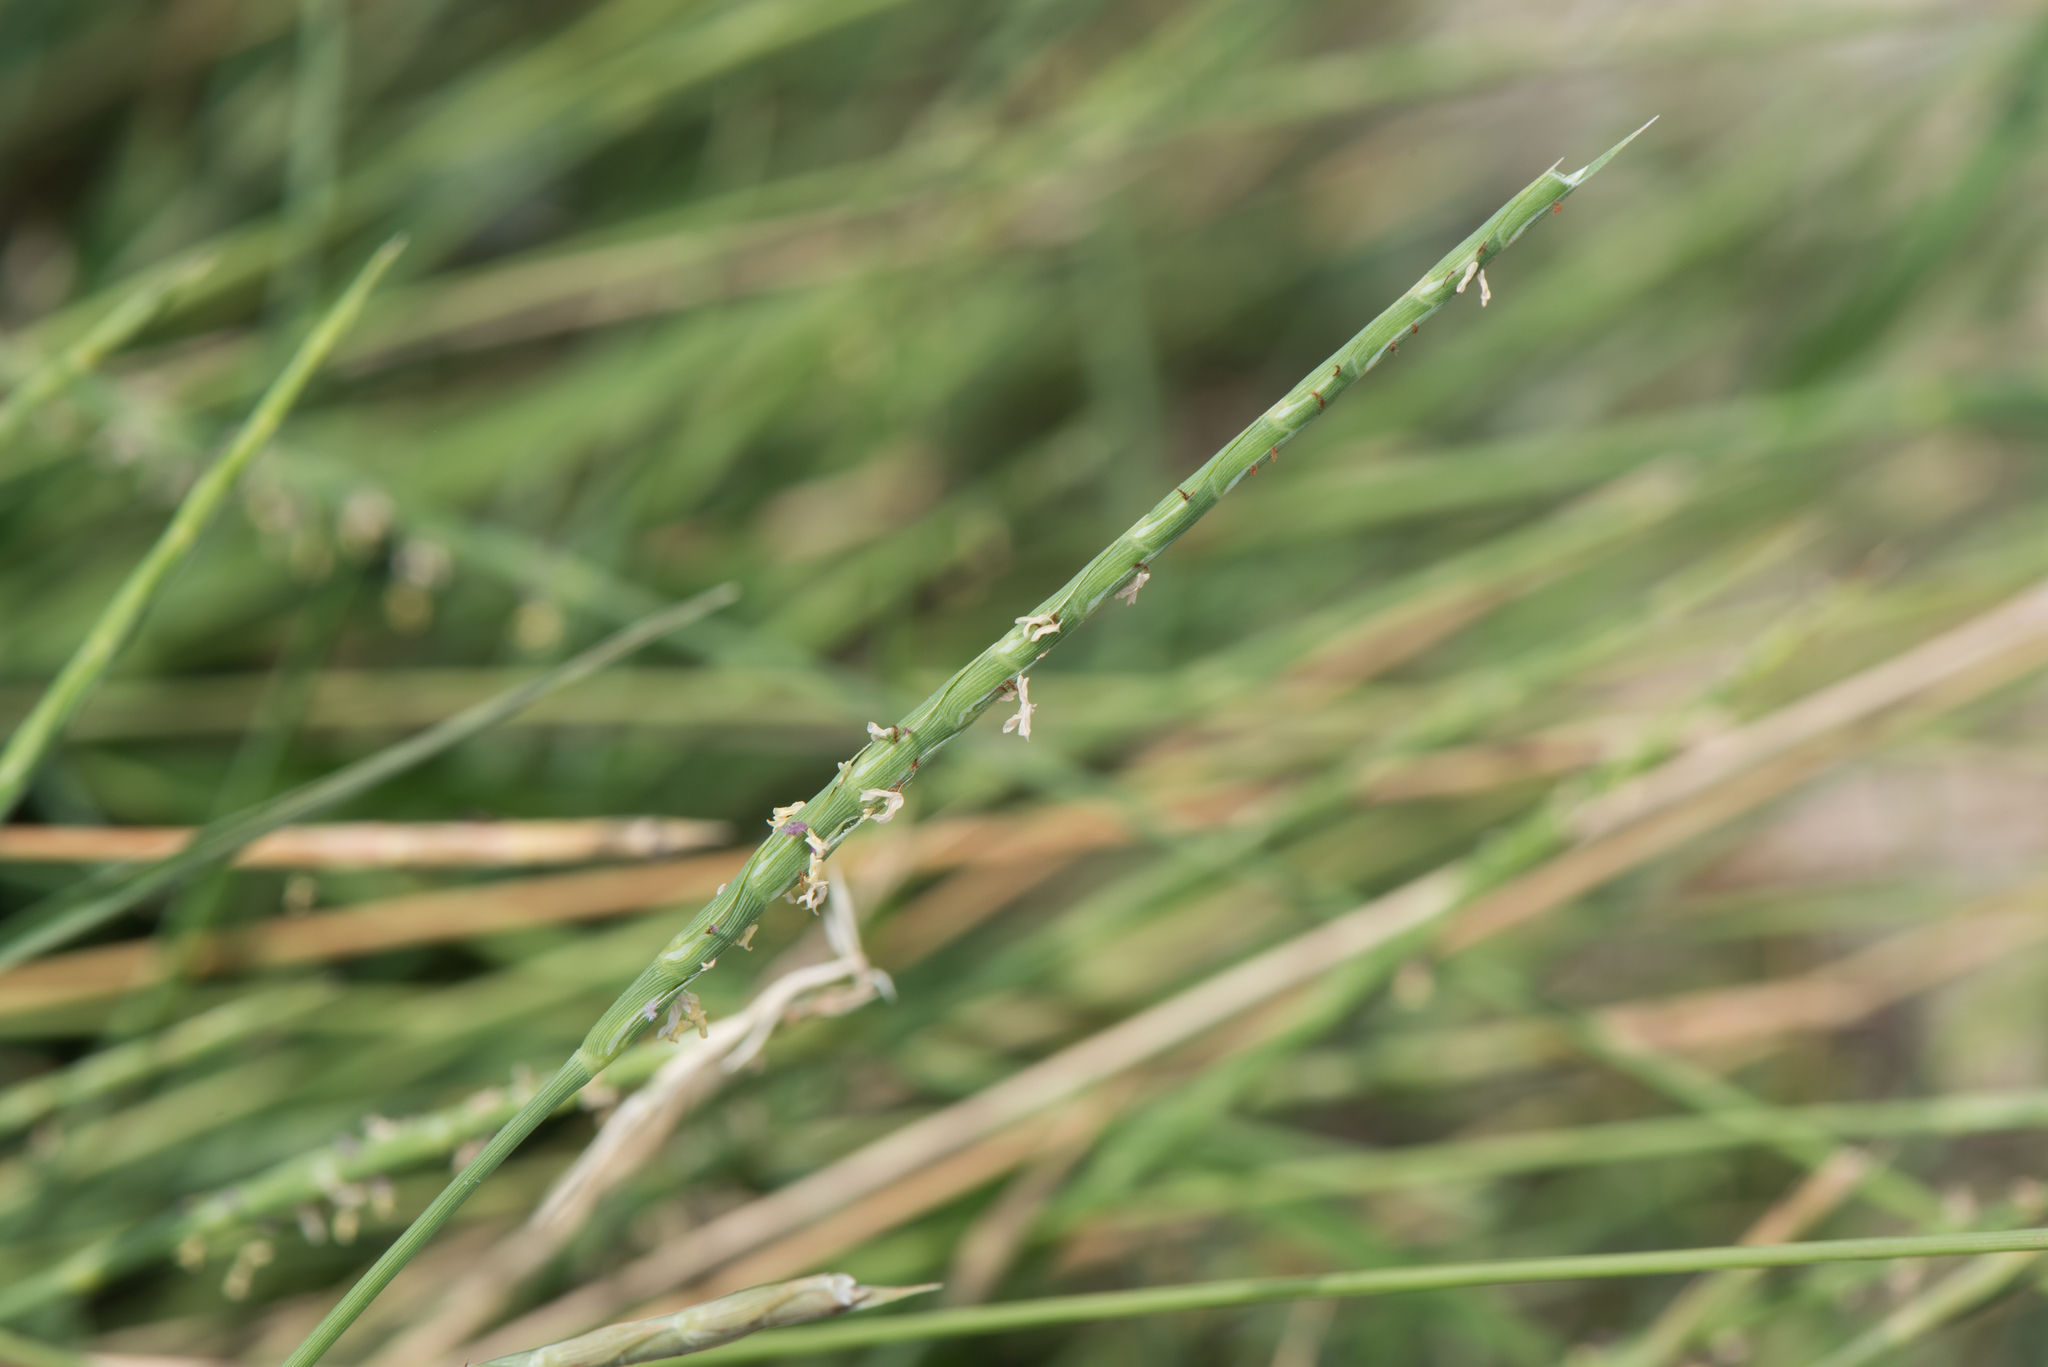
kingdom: Plantae
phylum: Tracheophyta
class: Liliopsida
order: Poales
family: Poaceae
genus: Lepturus
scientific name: Lepturus repens
